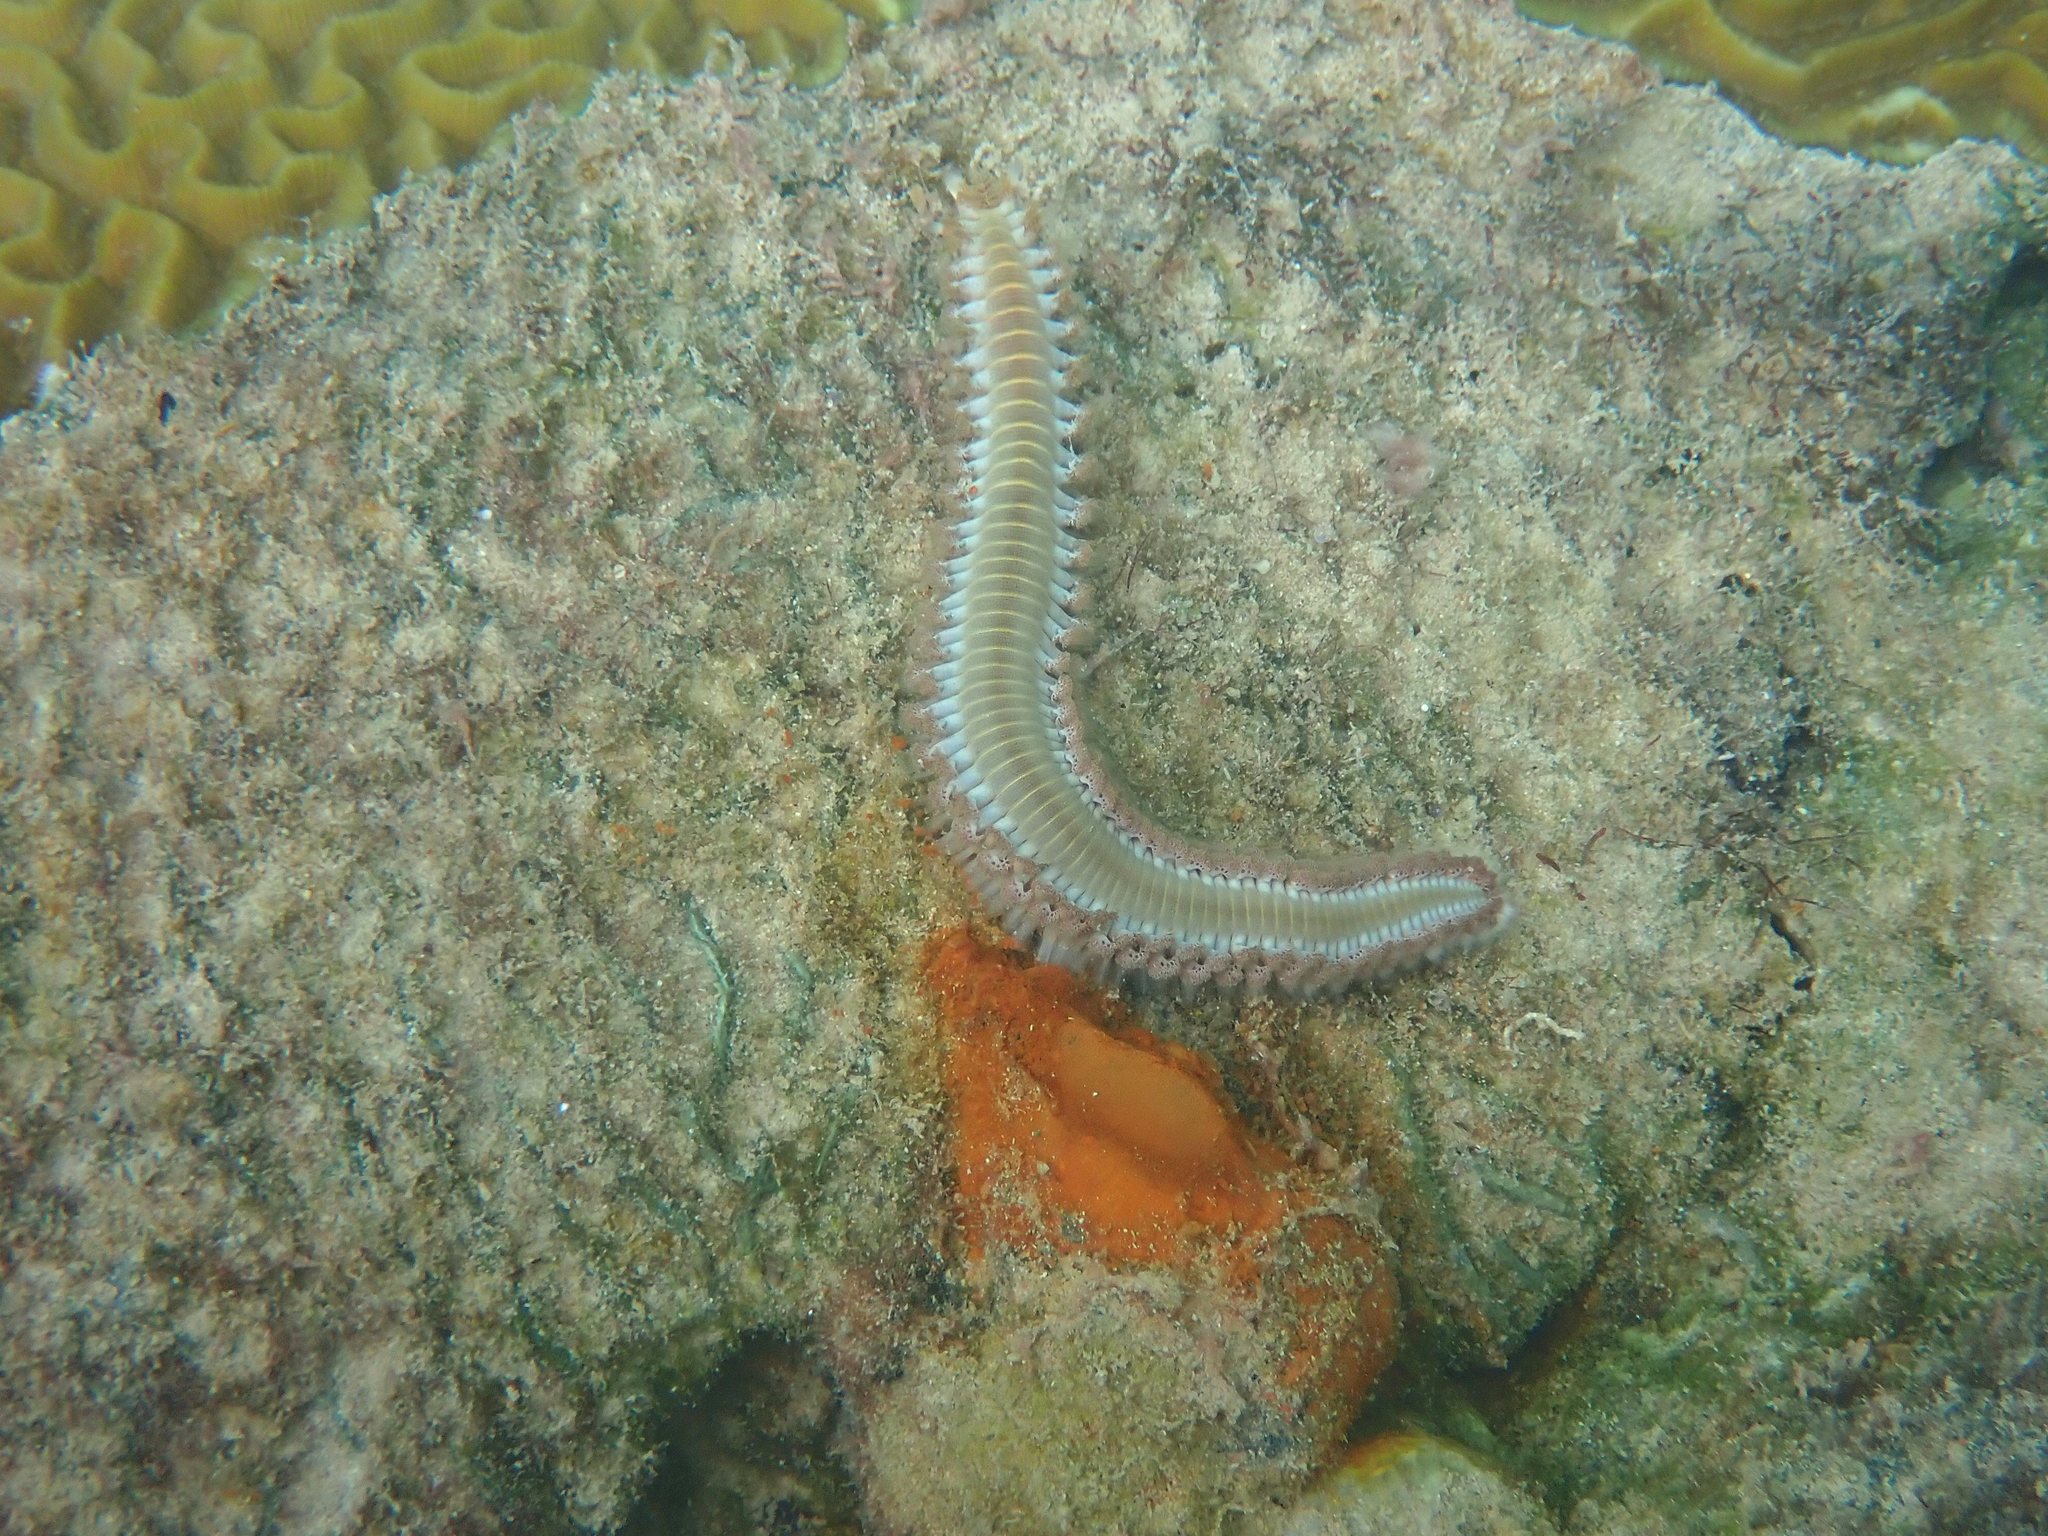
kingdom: Animalia
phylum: Annelida
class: Polychaeta
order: Amphinomida
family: Amphinomidae
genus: Hermodice
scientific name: Hermodice carunculata
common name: Bearded fireworm
